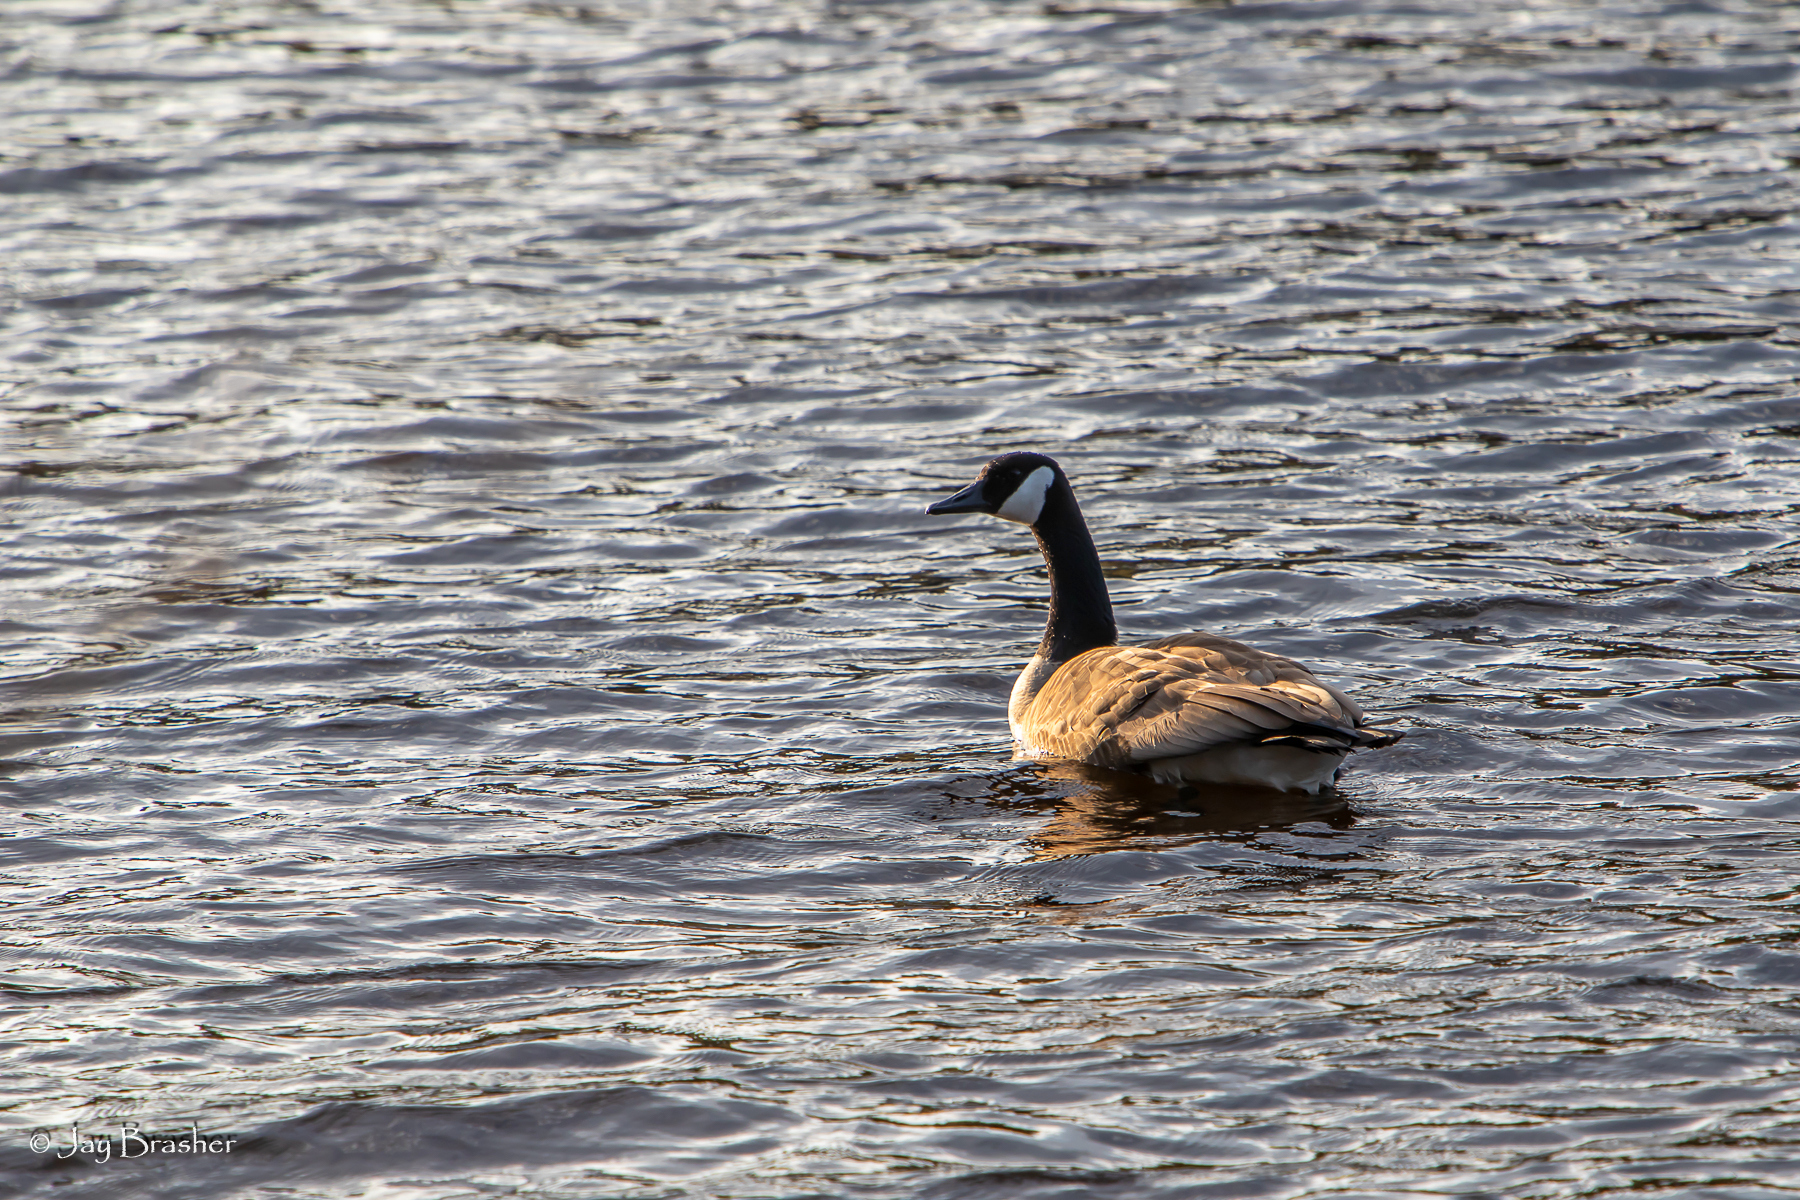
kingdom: Animalia
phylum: Chordata
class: Aves
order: Anseriformes
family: Anatidae
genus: Branta
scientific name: Branta canadensis
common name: Canada goose
